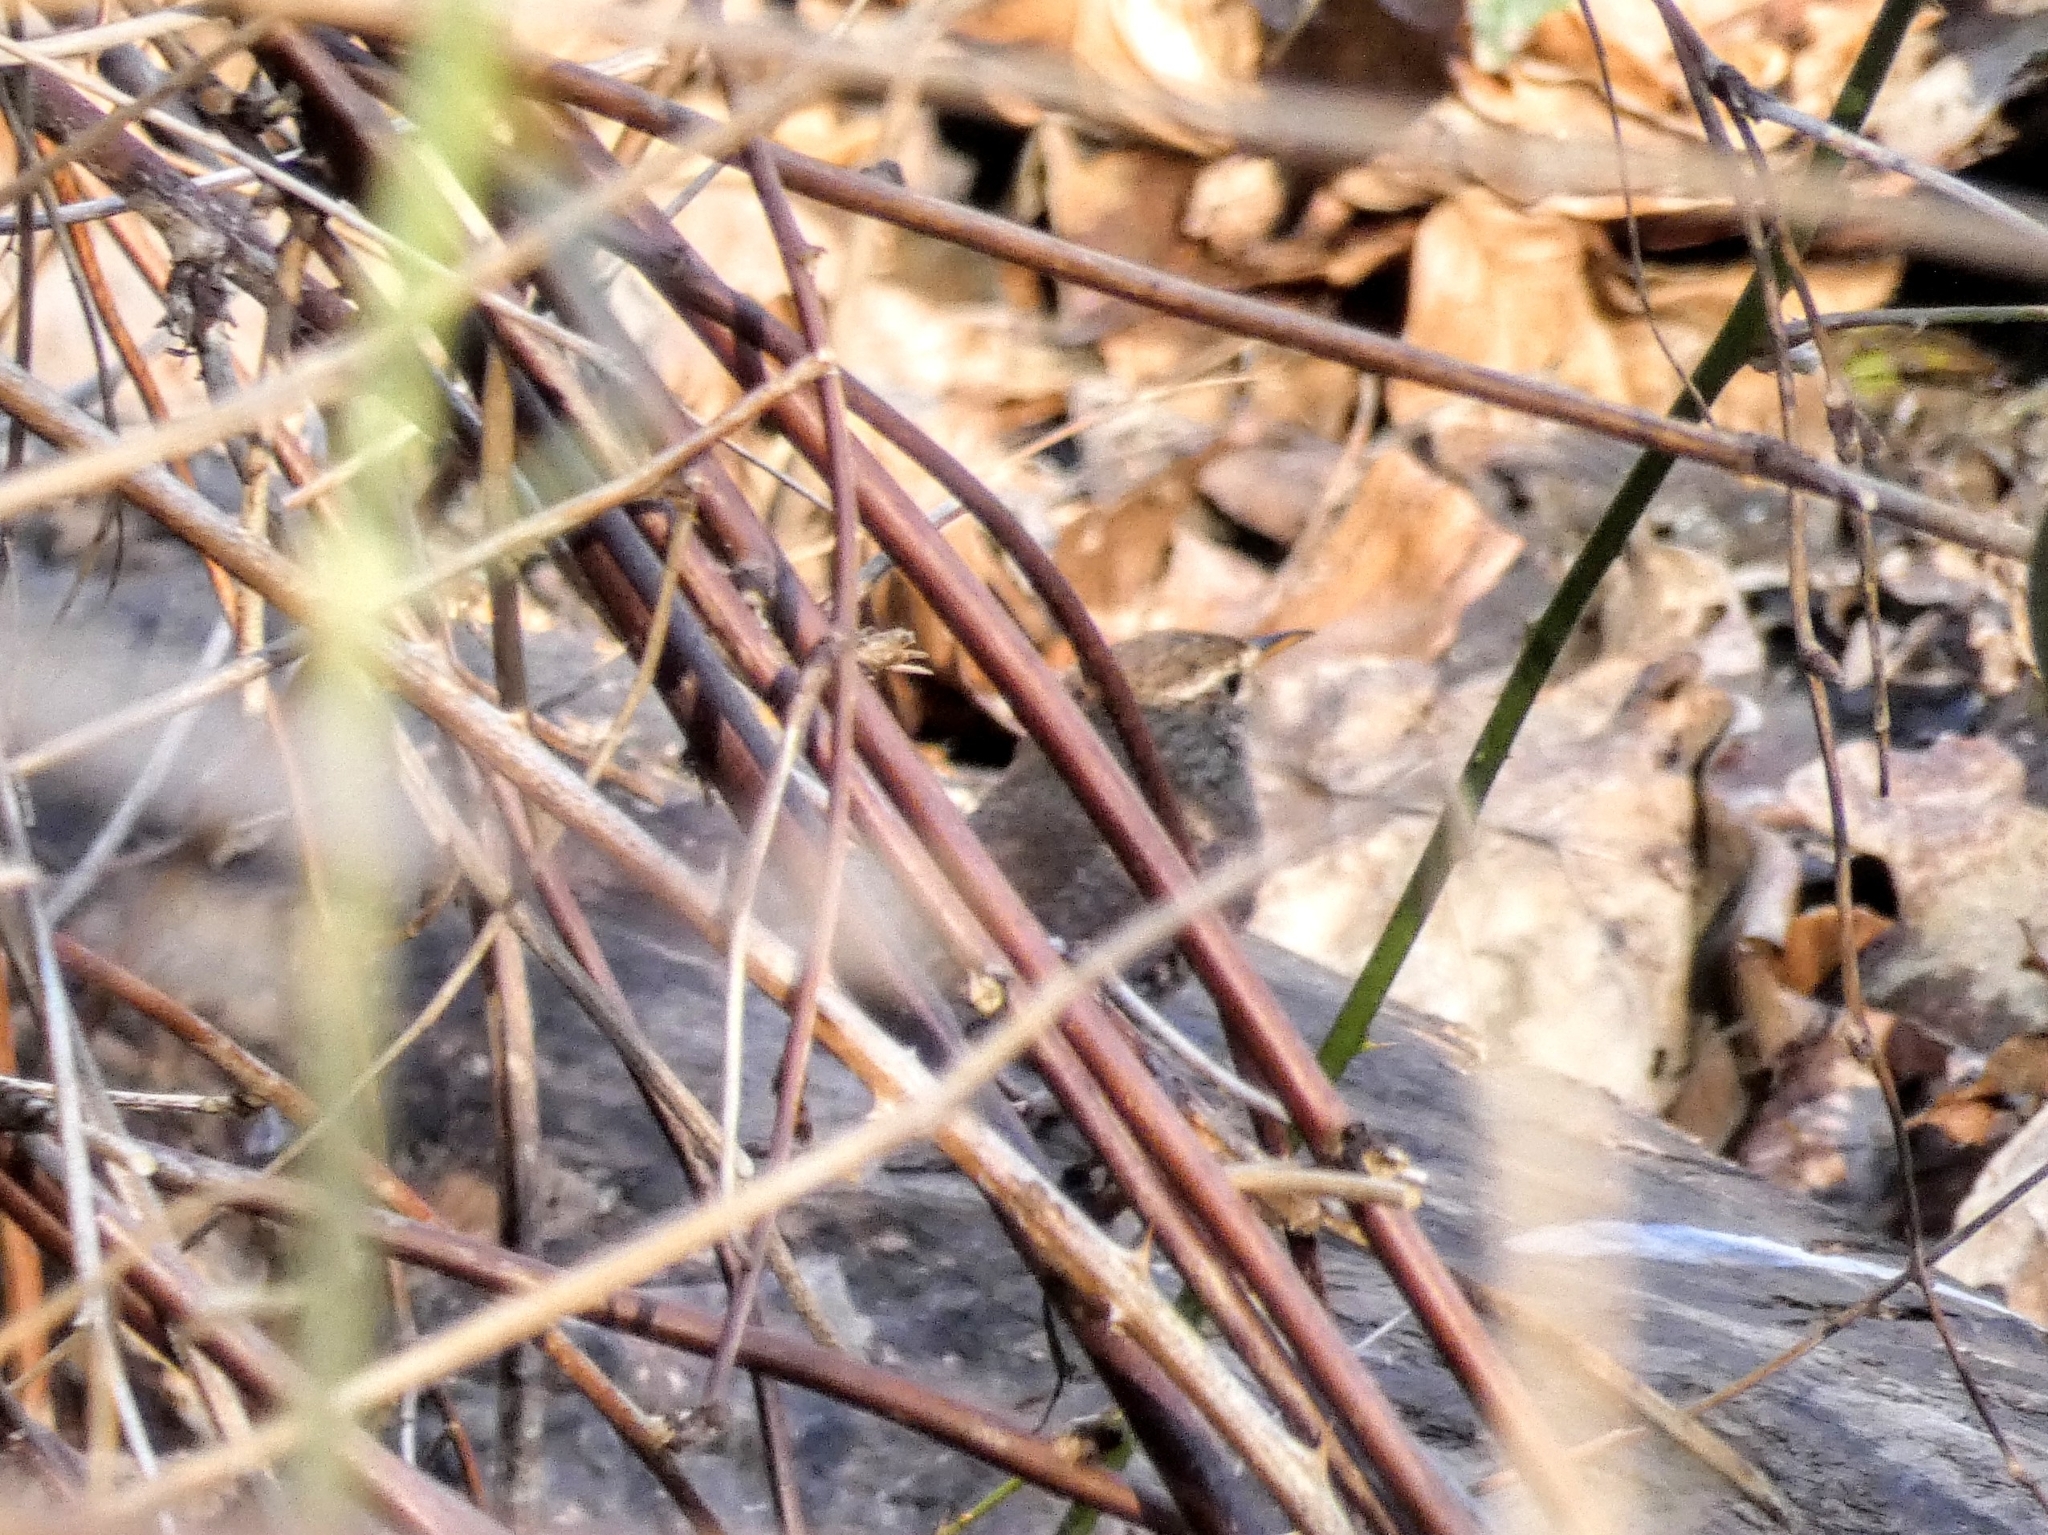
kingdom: Animalia
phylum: Chordata
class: Aves
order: Passeriformes
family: Troglodytidae
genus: Troglodytes
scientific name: Troglodytes troglodytes
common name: Eurasian wren
